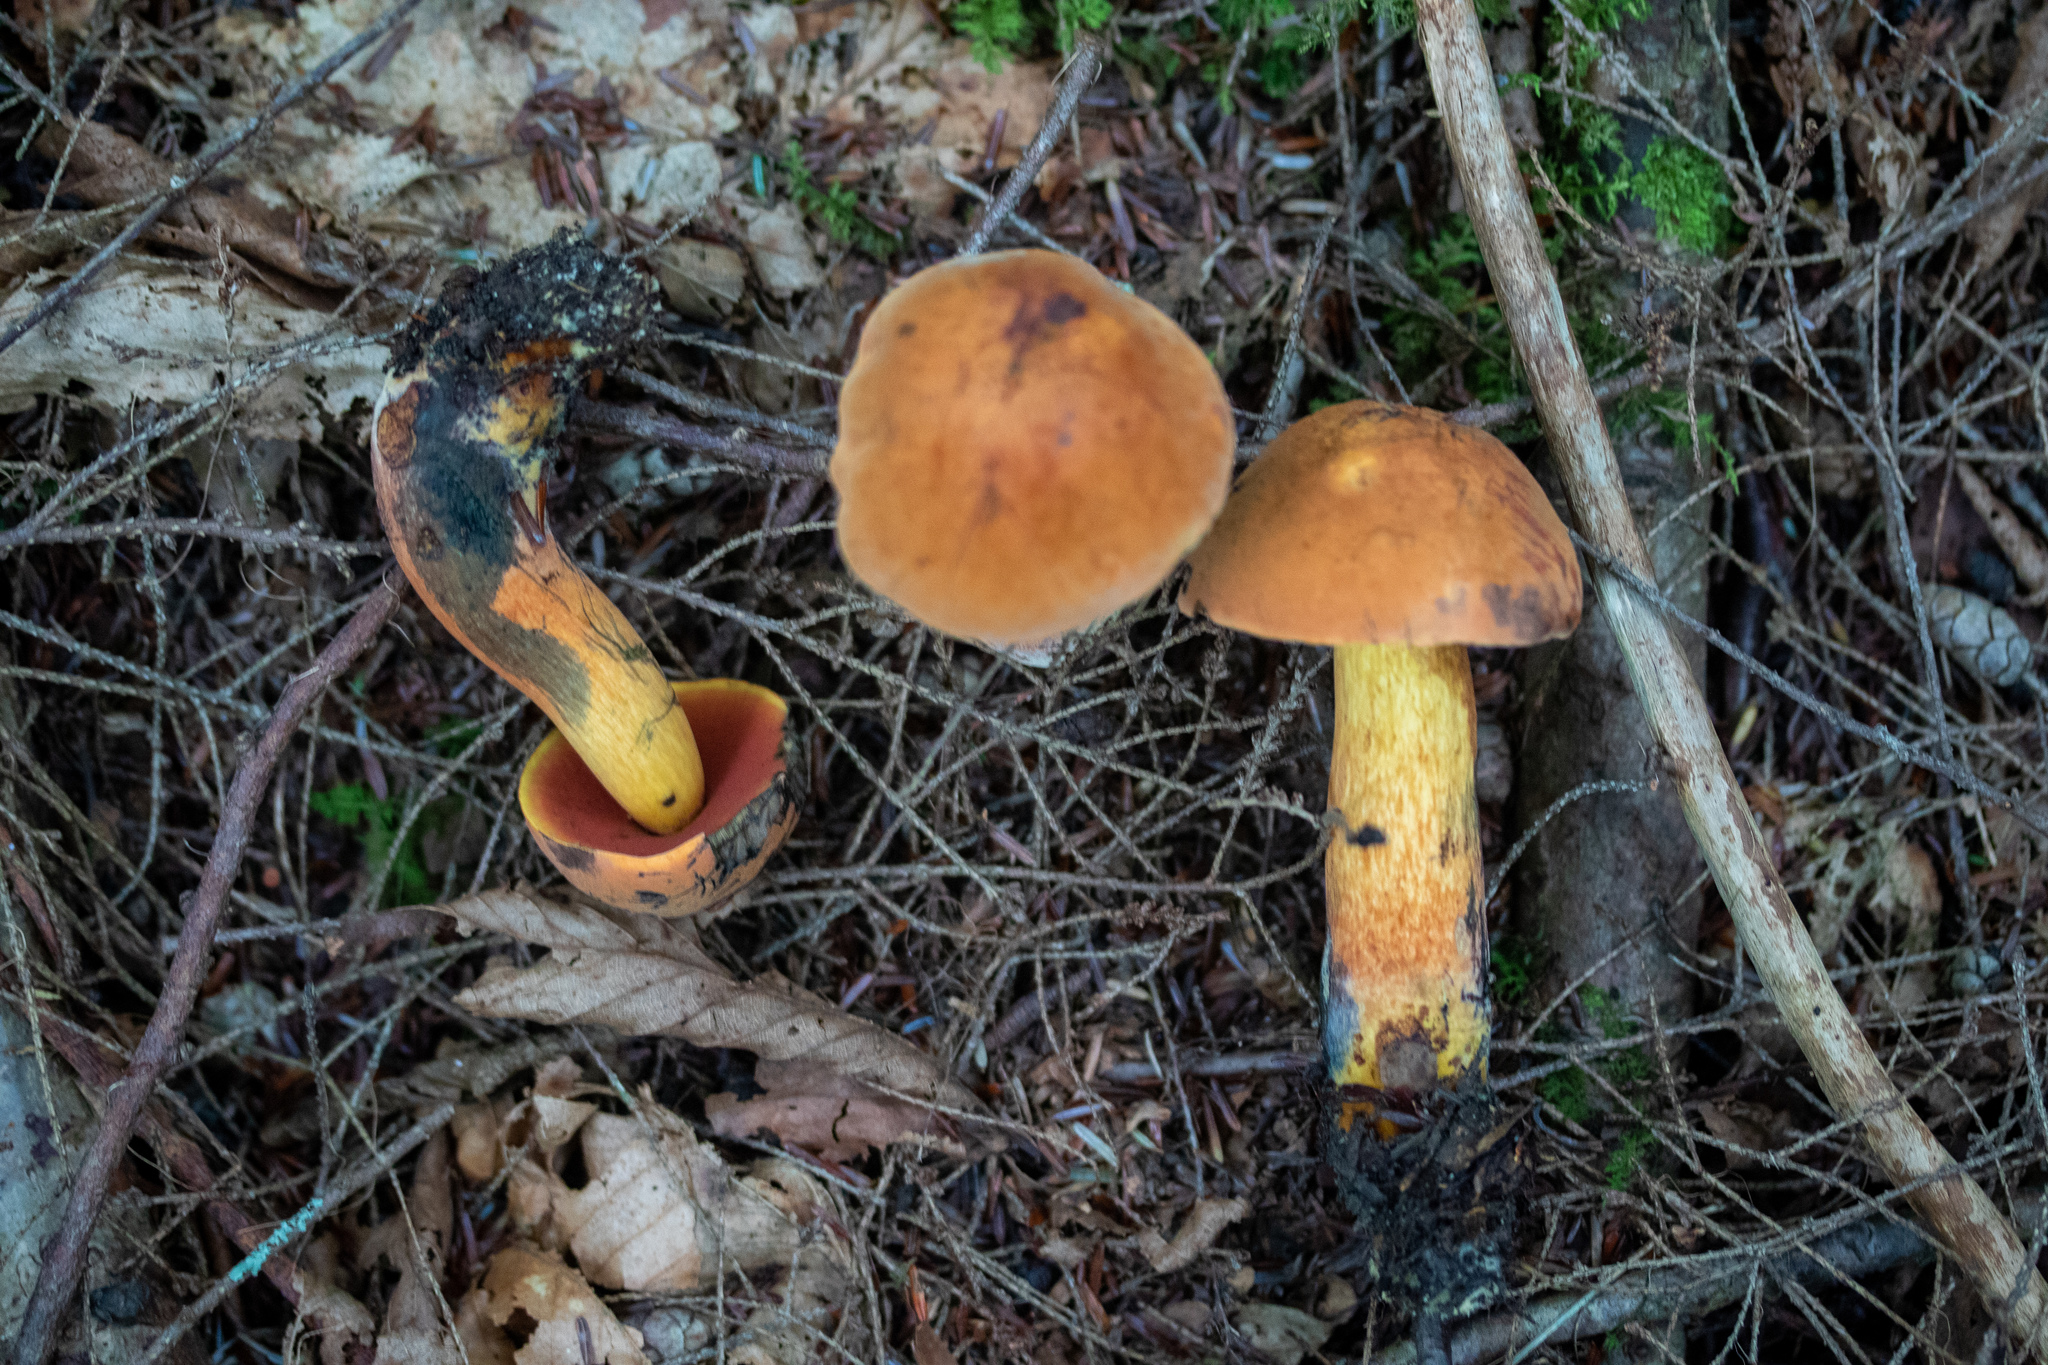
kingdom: Fungi
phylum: Basidiomycota
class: Agaricomycetes
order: Boletales
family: Boletaceae
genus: Boletus
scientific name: Boletus subvelutipes
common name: Red-mouth bolete
